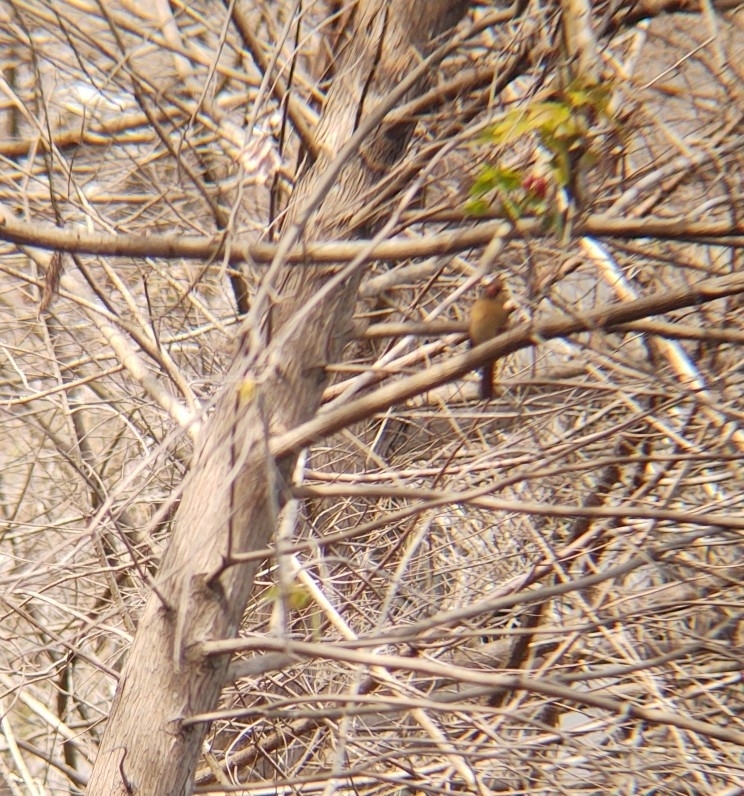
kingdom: Animalia
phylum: Chordata
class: Aves
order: Passeriformes
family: Cardinalidae
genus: Cardinalis
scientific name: Cardinalis cardinalis
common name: Northern cardinal
